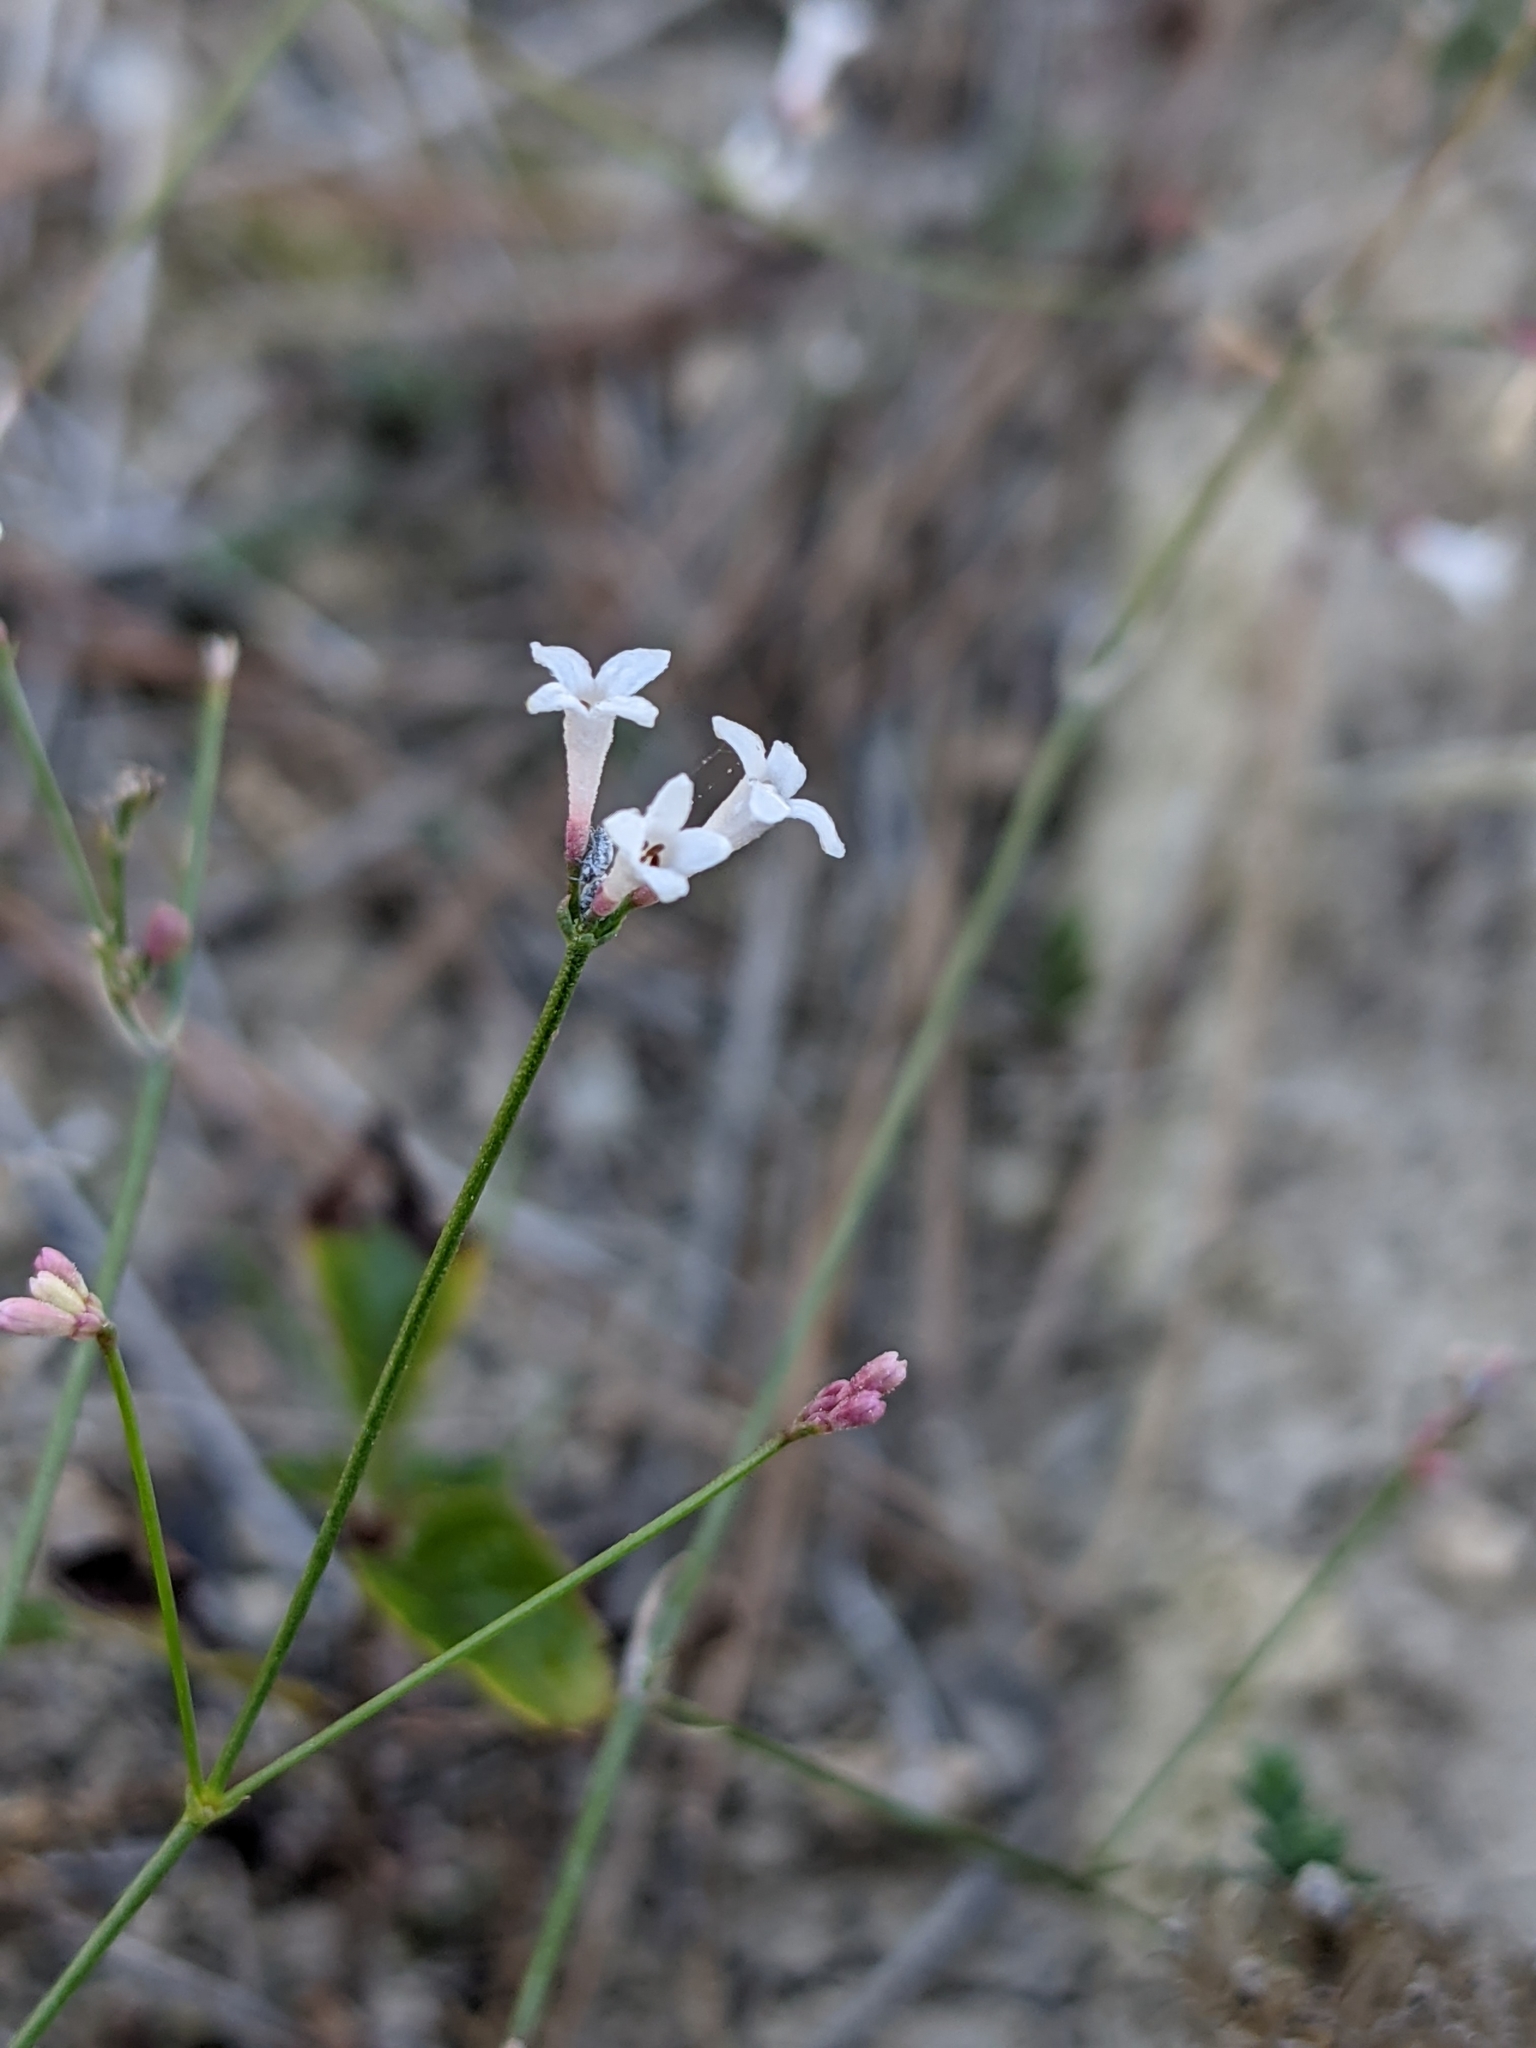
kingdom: Plantae
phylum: Tracheophyta
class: Magnoliopsida
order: Gentianales
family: Rubiaceae
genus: Cynanchica
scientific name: Cynanchica pyrenaica
